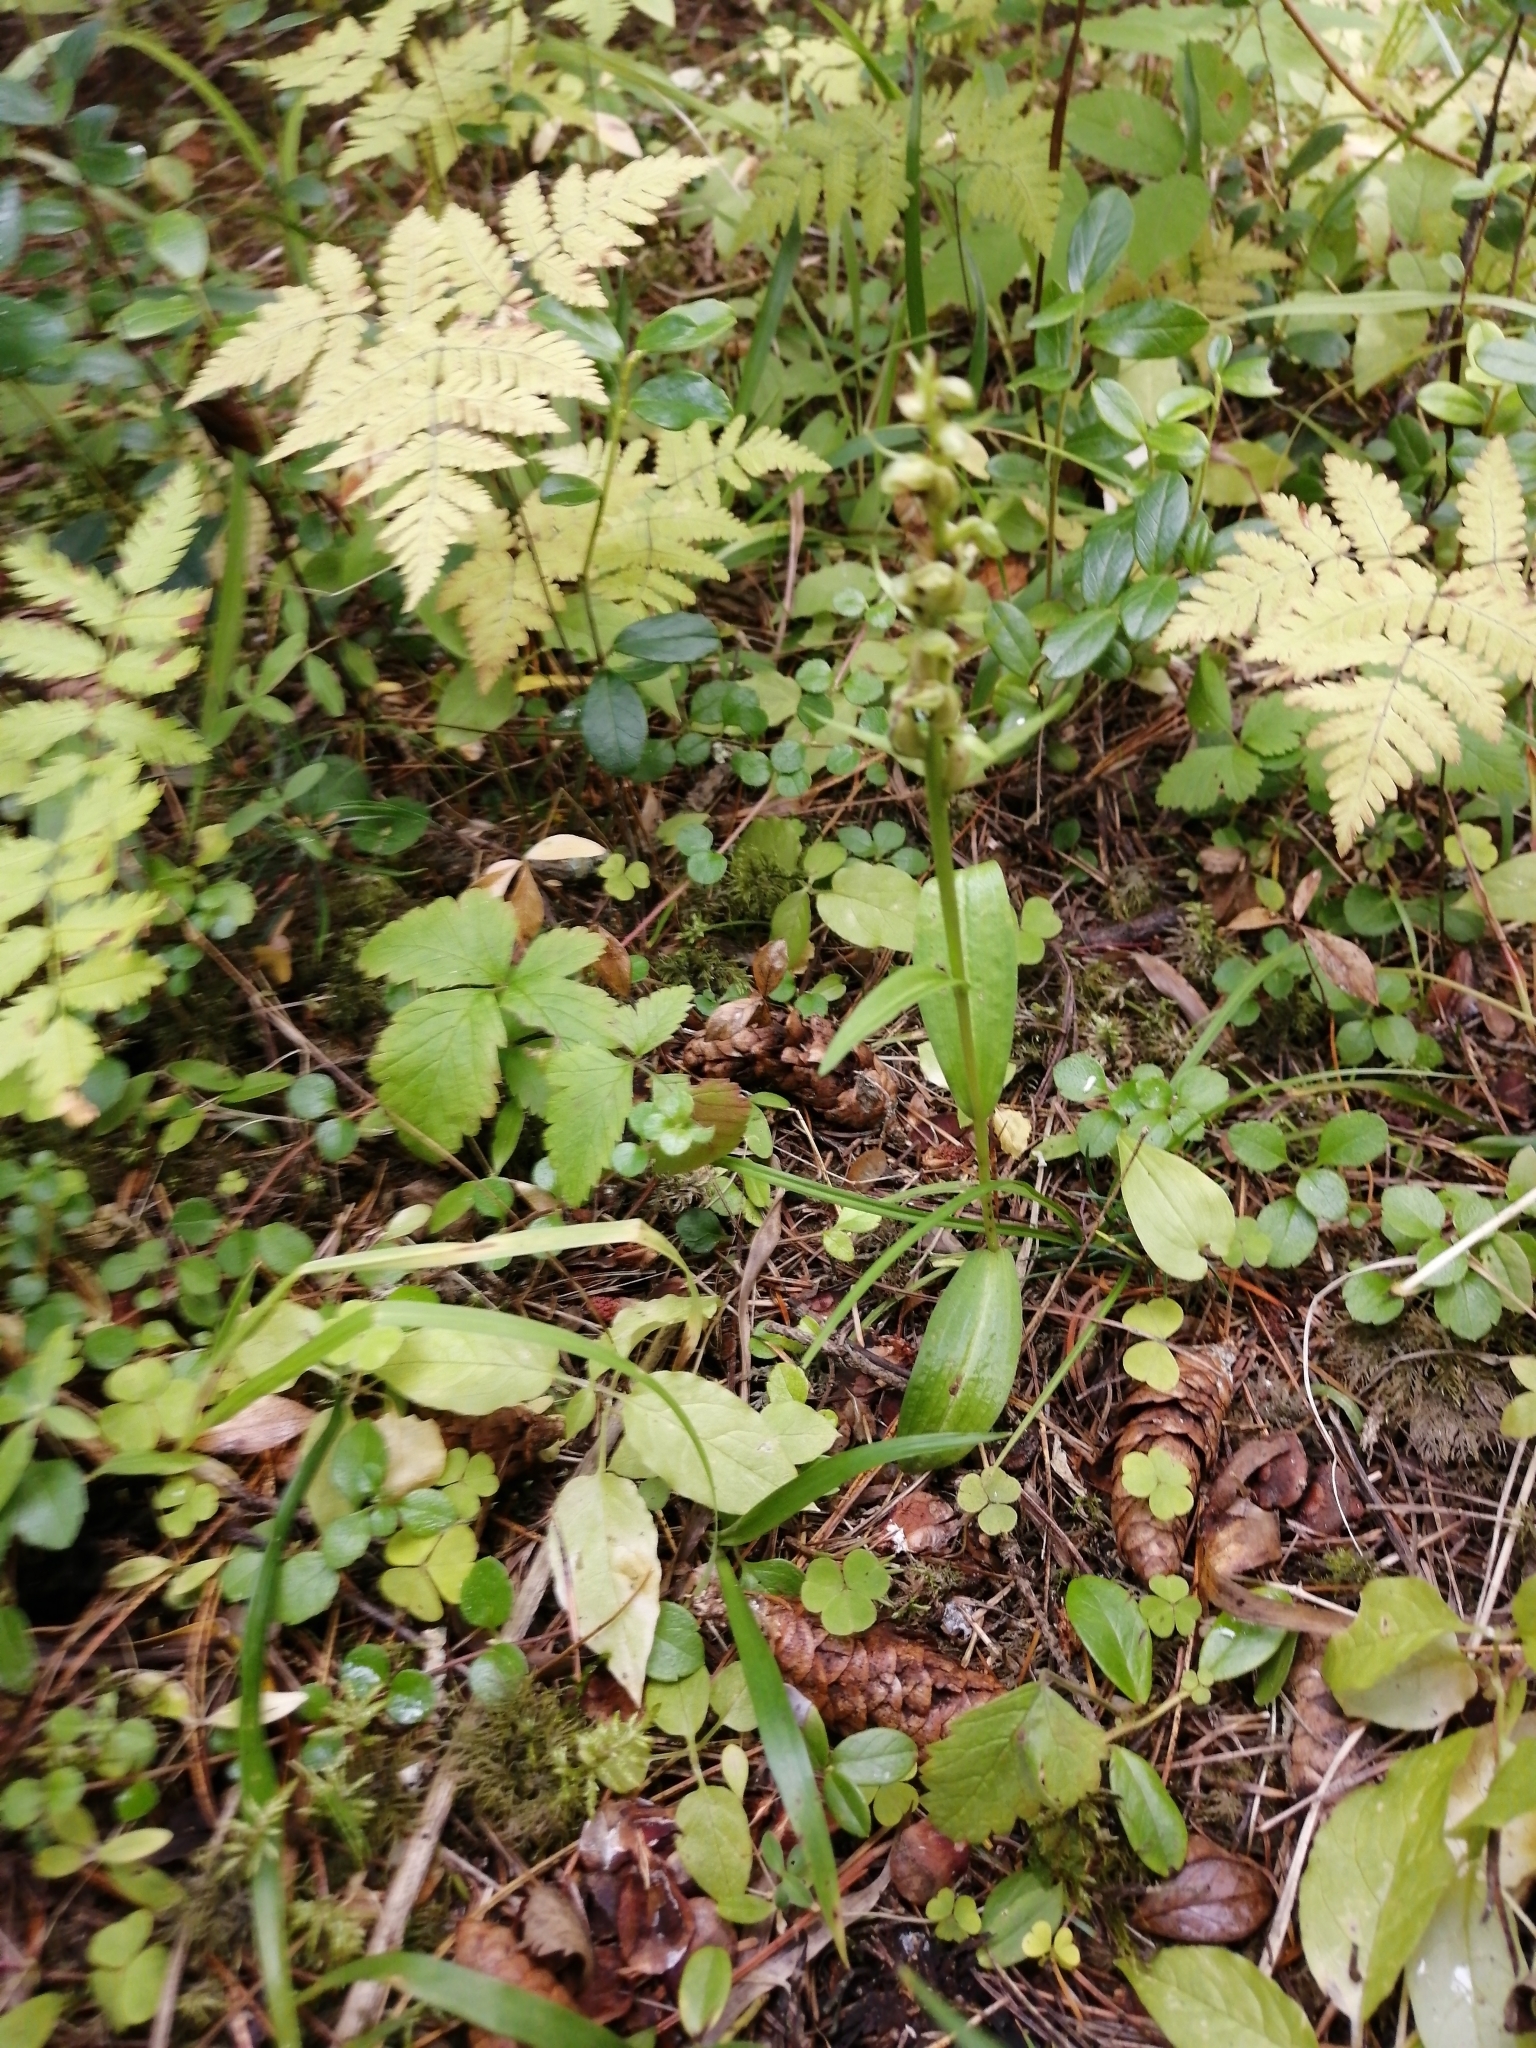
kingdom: Plantae
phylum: Tracheophyta
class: Liliopsida
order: Asparagales
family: Orchidaceae
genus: Dactylorhiza
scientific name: Dactylorhiza viridis
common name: Longbract frog orchid
